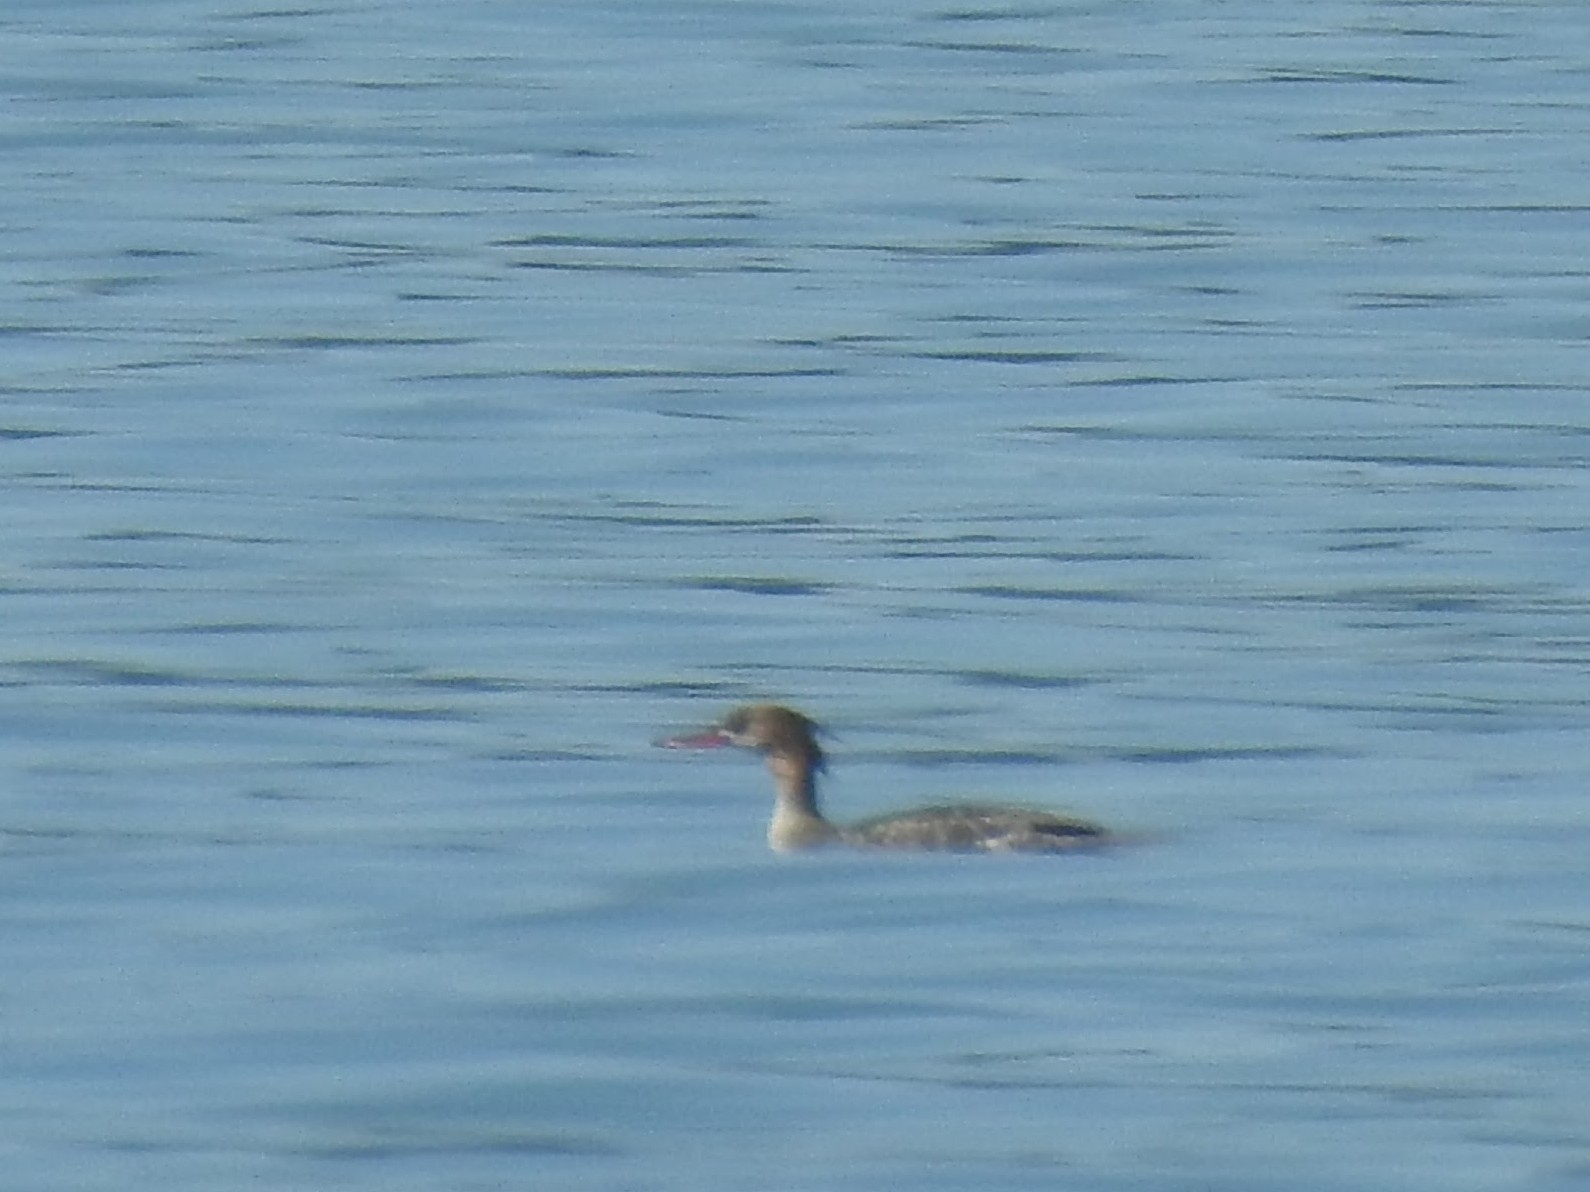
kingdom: Animalia
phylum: Chordata
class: Aves
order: Anseriformes
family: Anatidae
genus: Mergus
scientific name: Mergus serrator
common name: Red-breasted merganser
